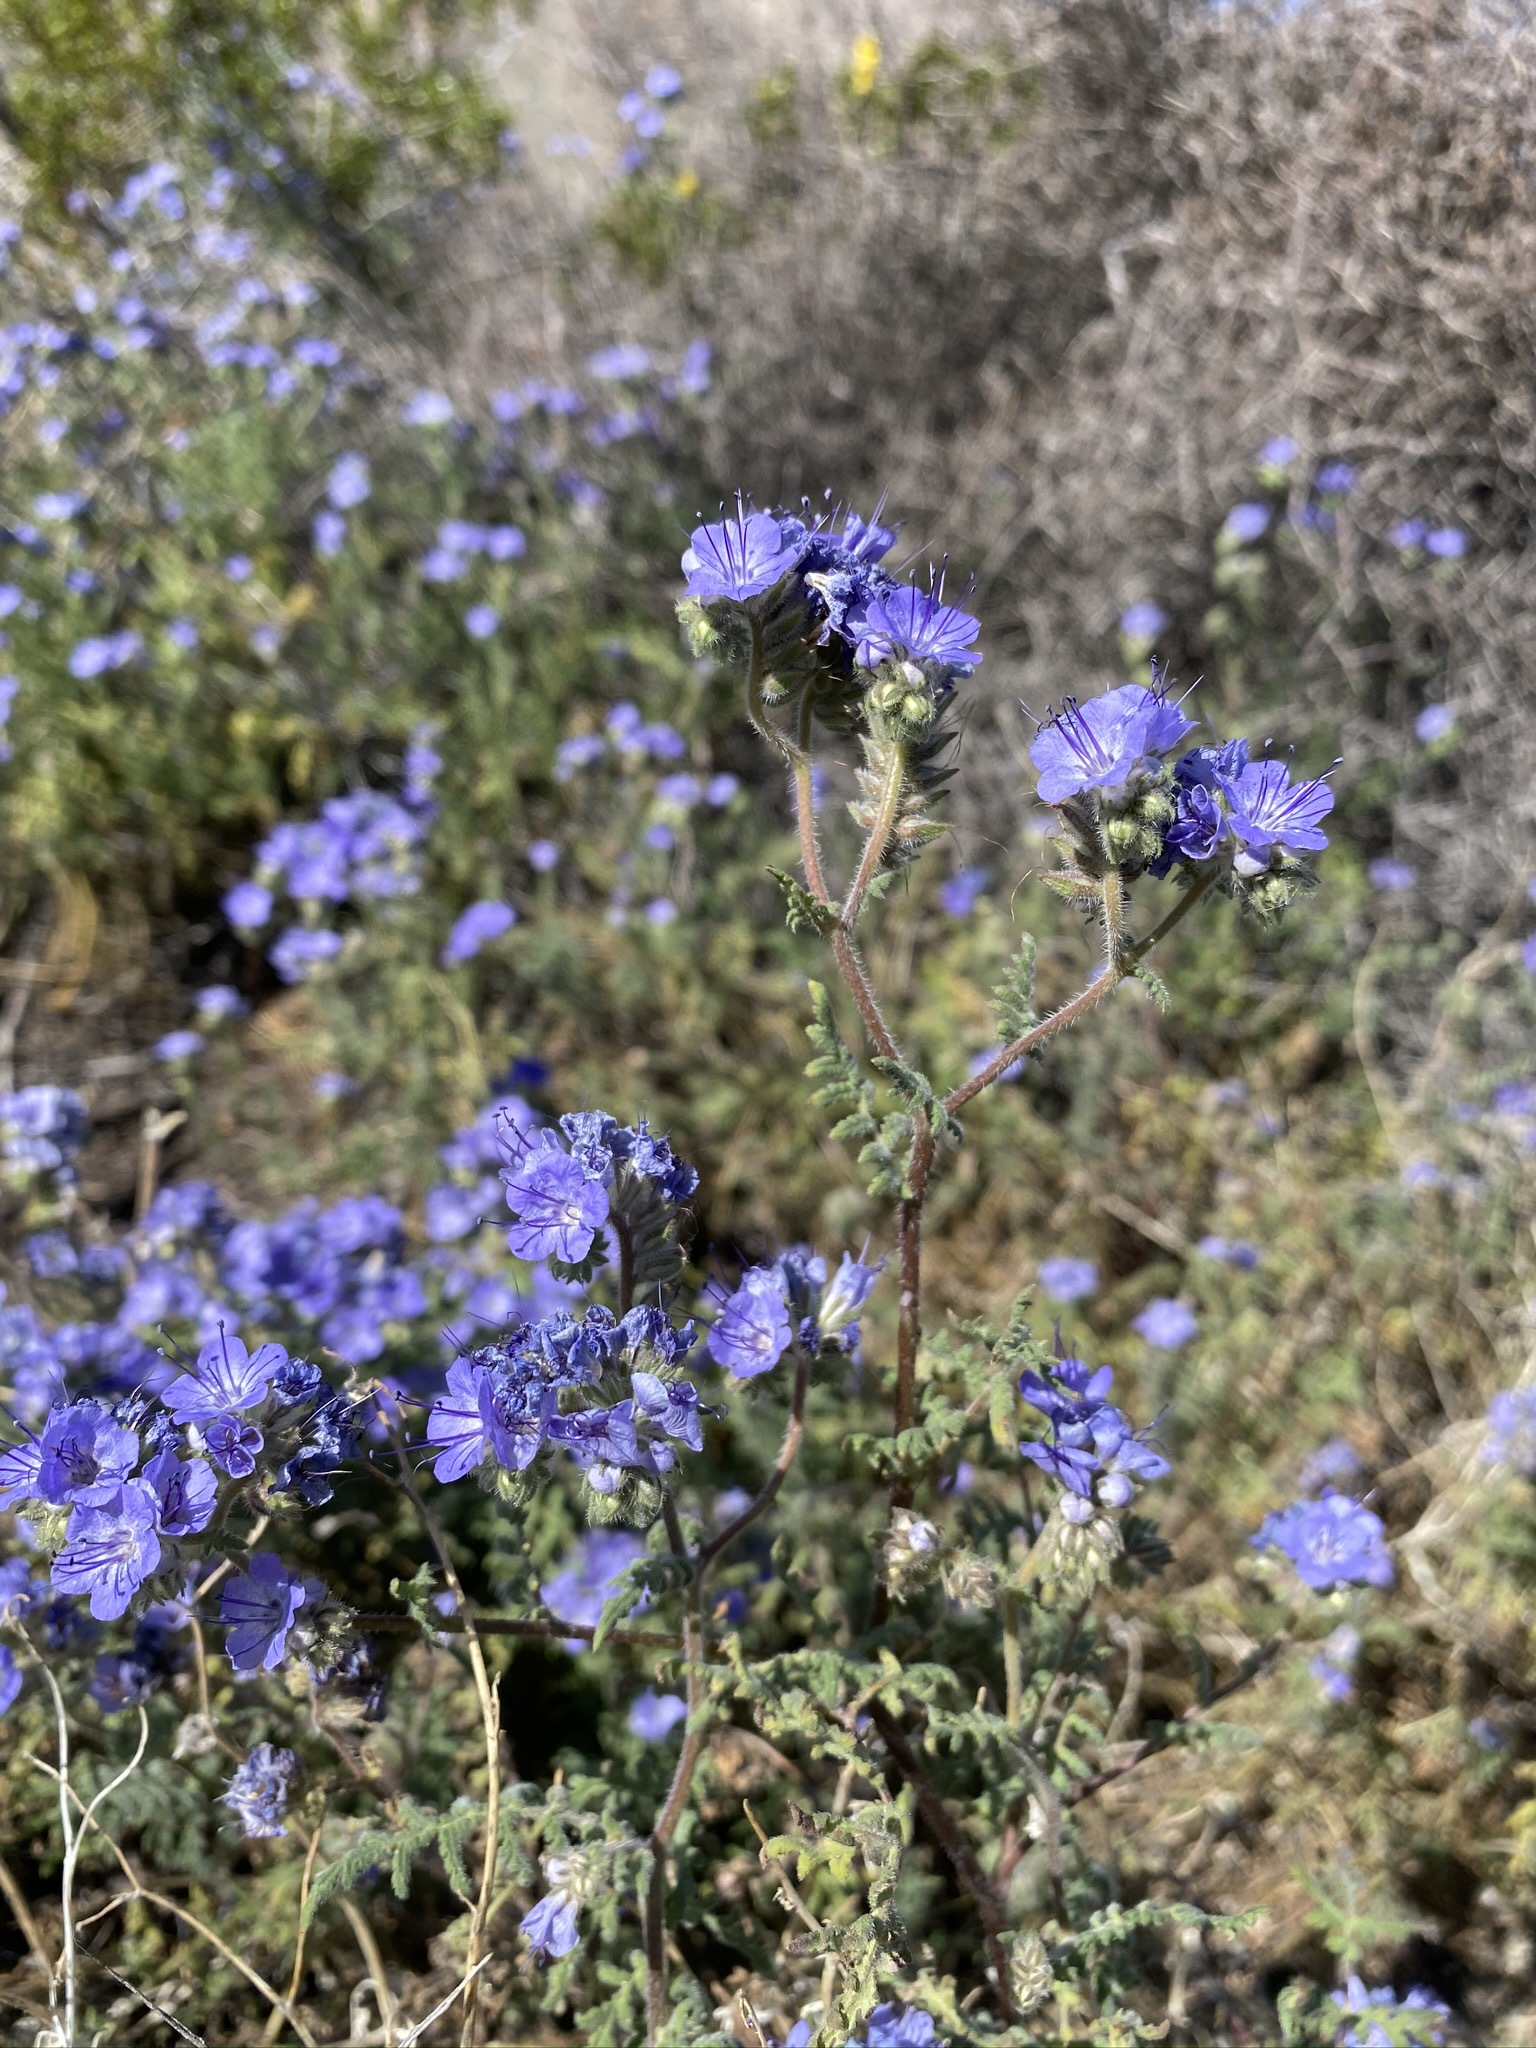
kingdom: Plantae
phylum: Tracheophyta
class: Magnoliopsida
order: Boraginales
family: Hydrophyllaceae
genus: Phacelia
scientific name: Phacelia distans
